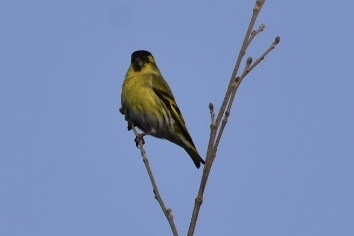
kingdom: Animalia
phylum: Chordata
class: Aves
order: Passeriformes
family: Fringillidae
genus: Spinus
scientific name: Spinus spinus
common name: Eurasian siskin
